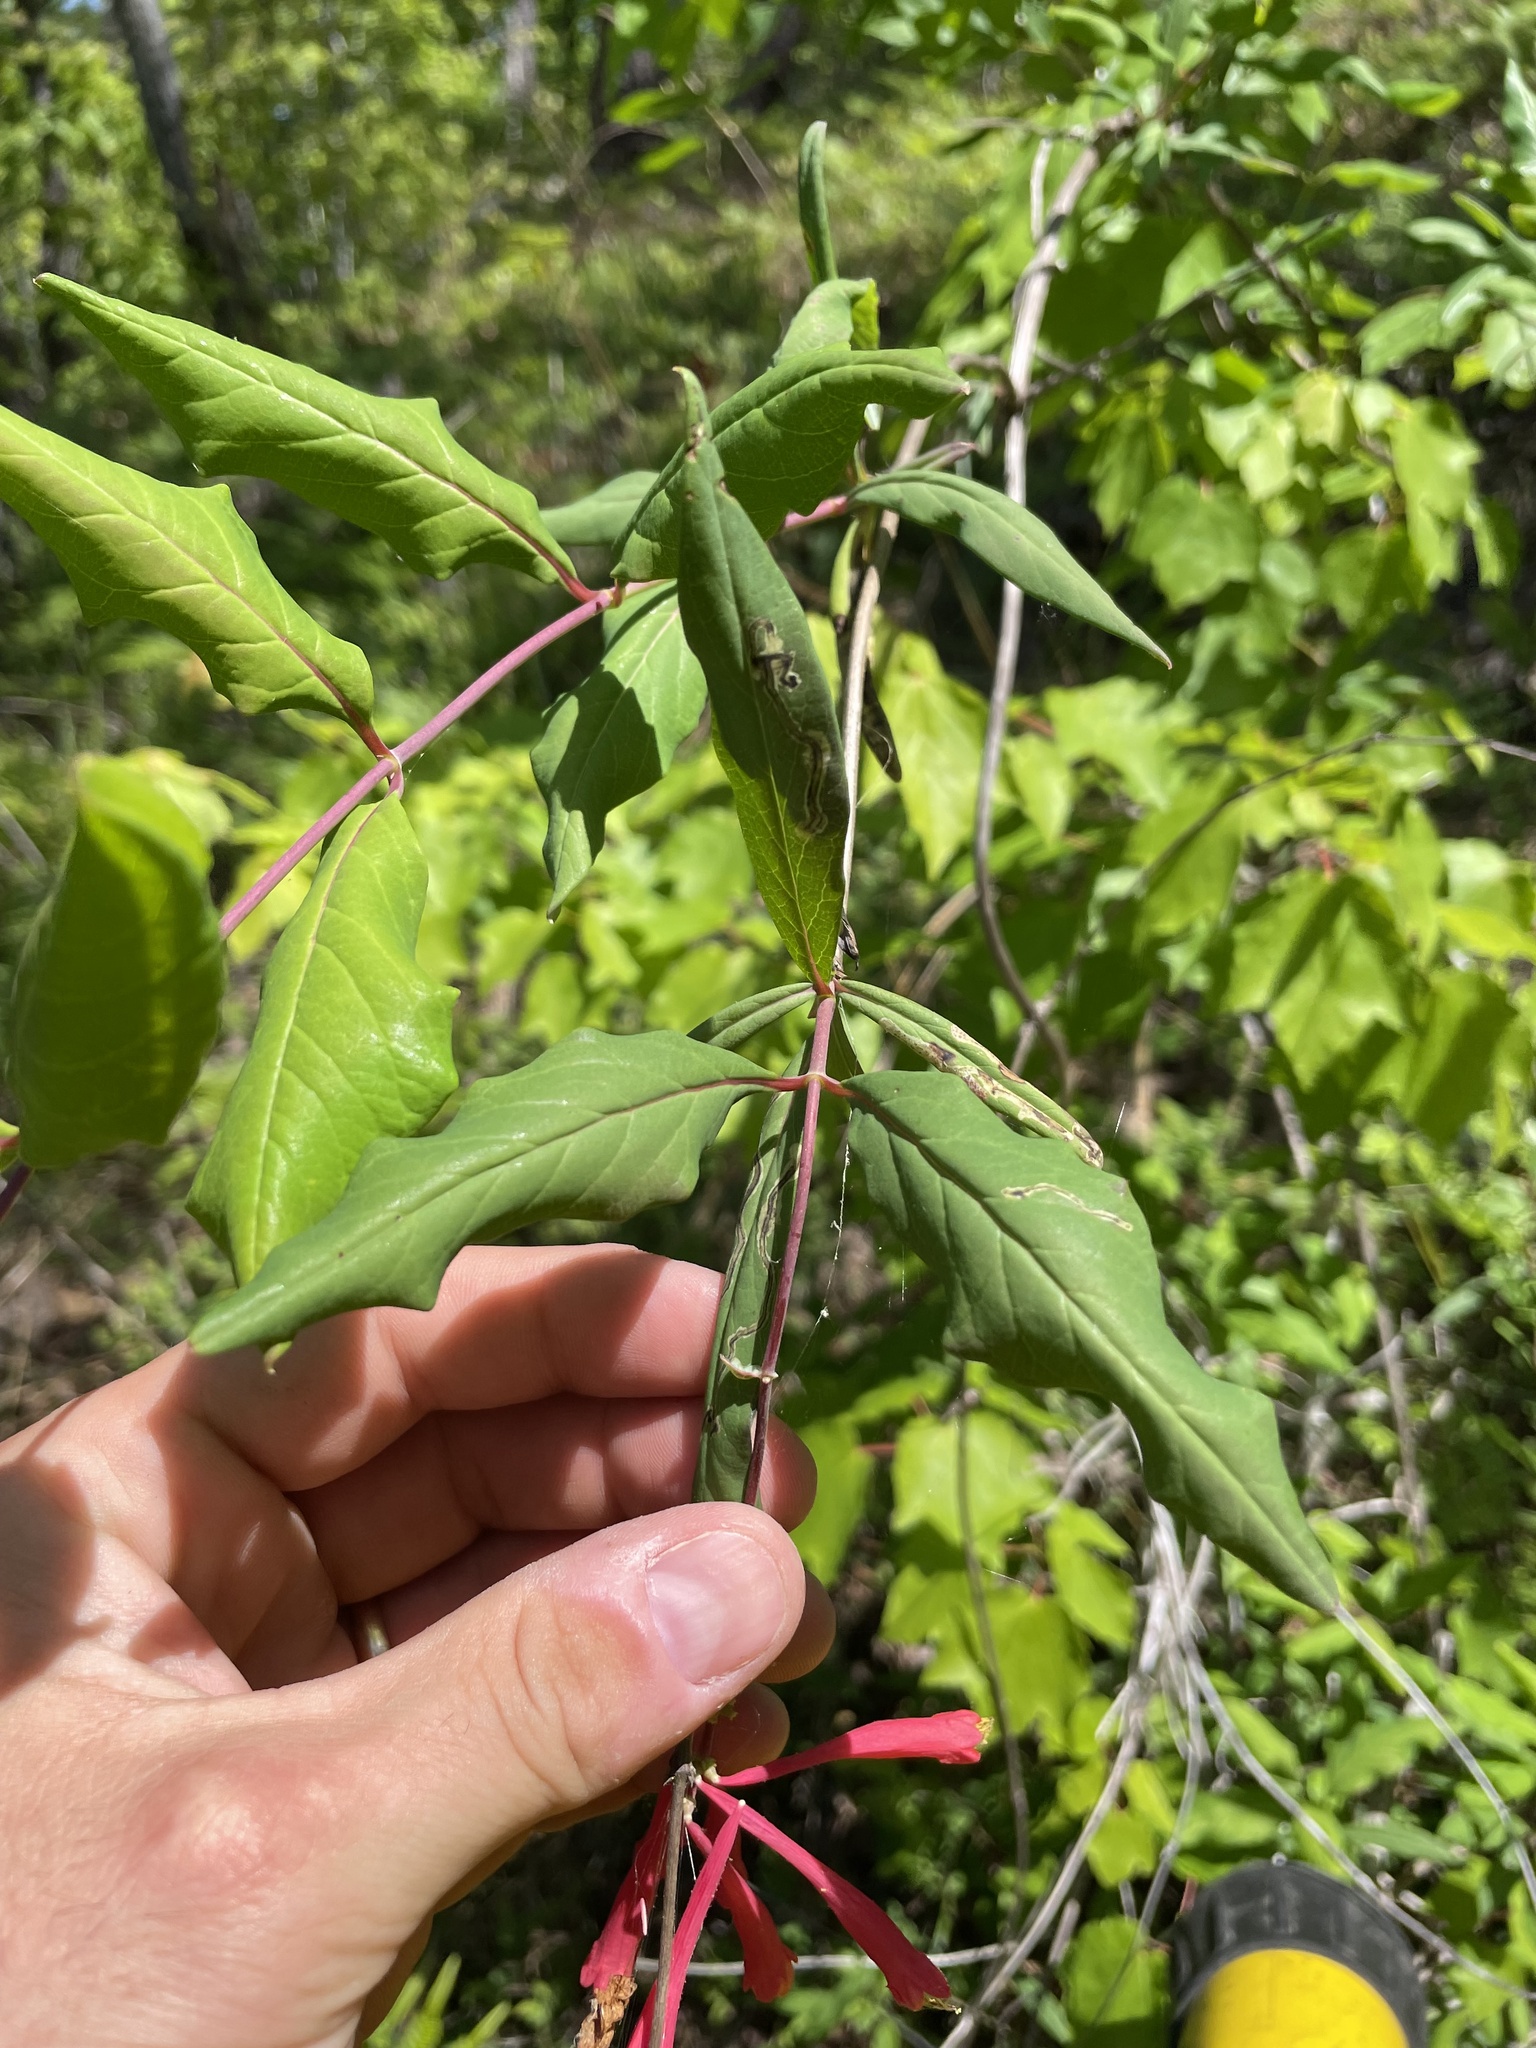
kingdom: Plantae
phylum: Tracheophyta
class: Magnoliopsida
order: Dipsacales
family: Caprifoliaceae
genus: Lonicera
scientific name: Lonicera sempervirens
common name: Coral honeysuckle
